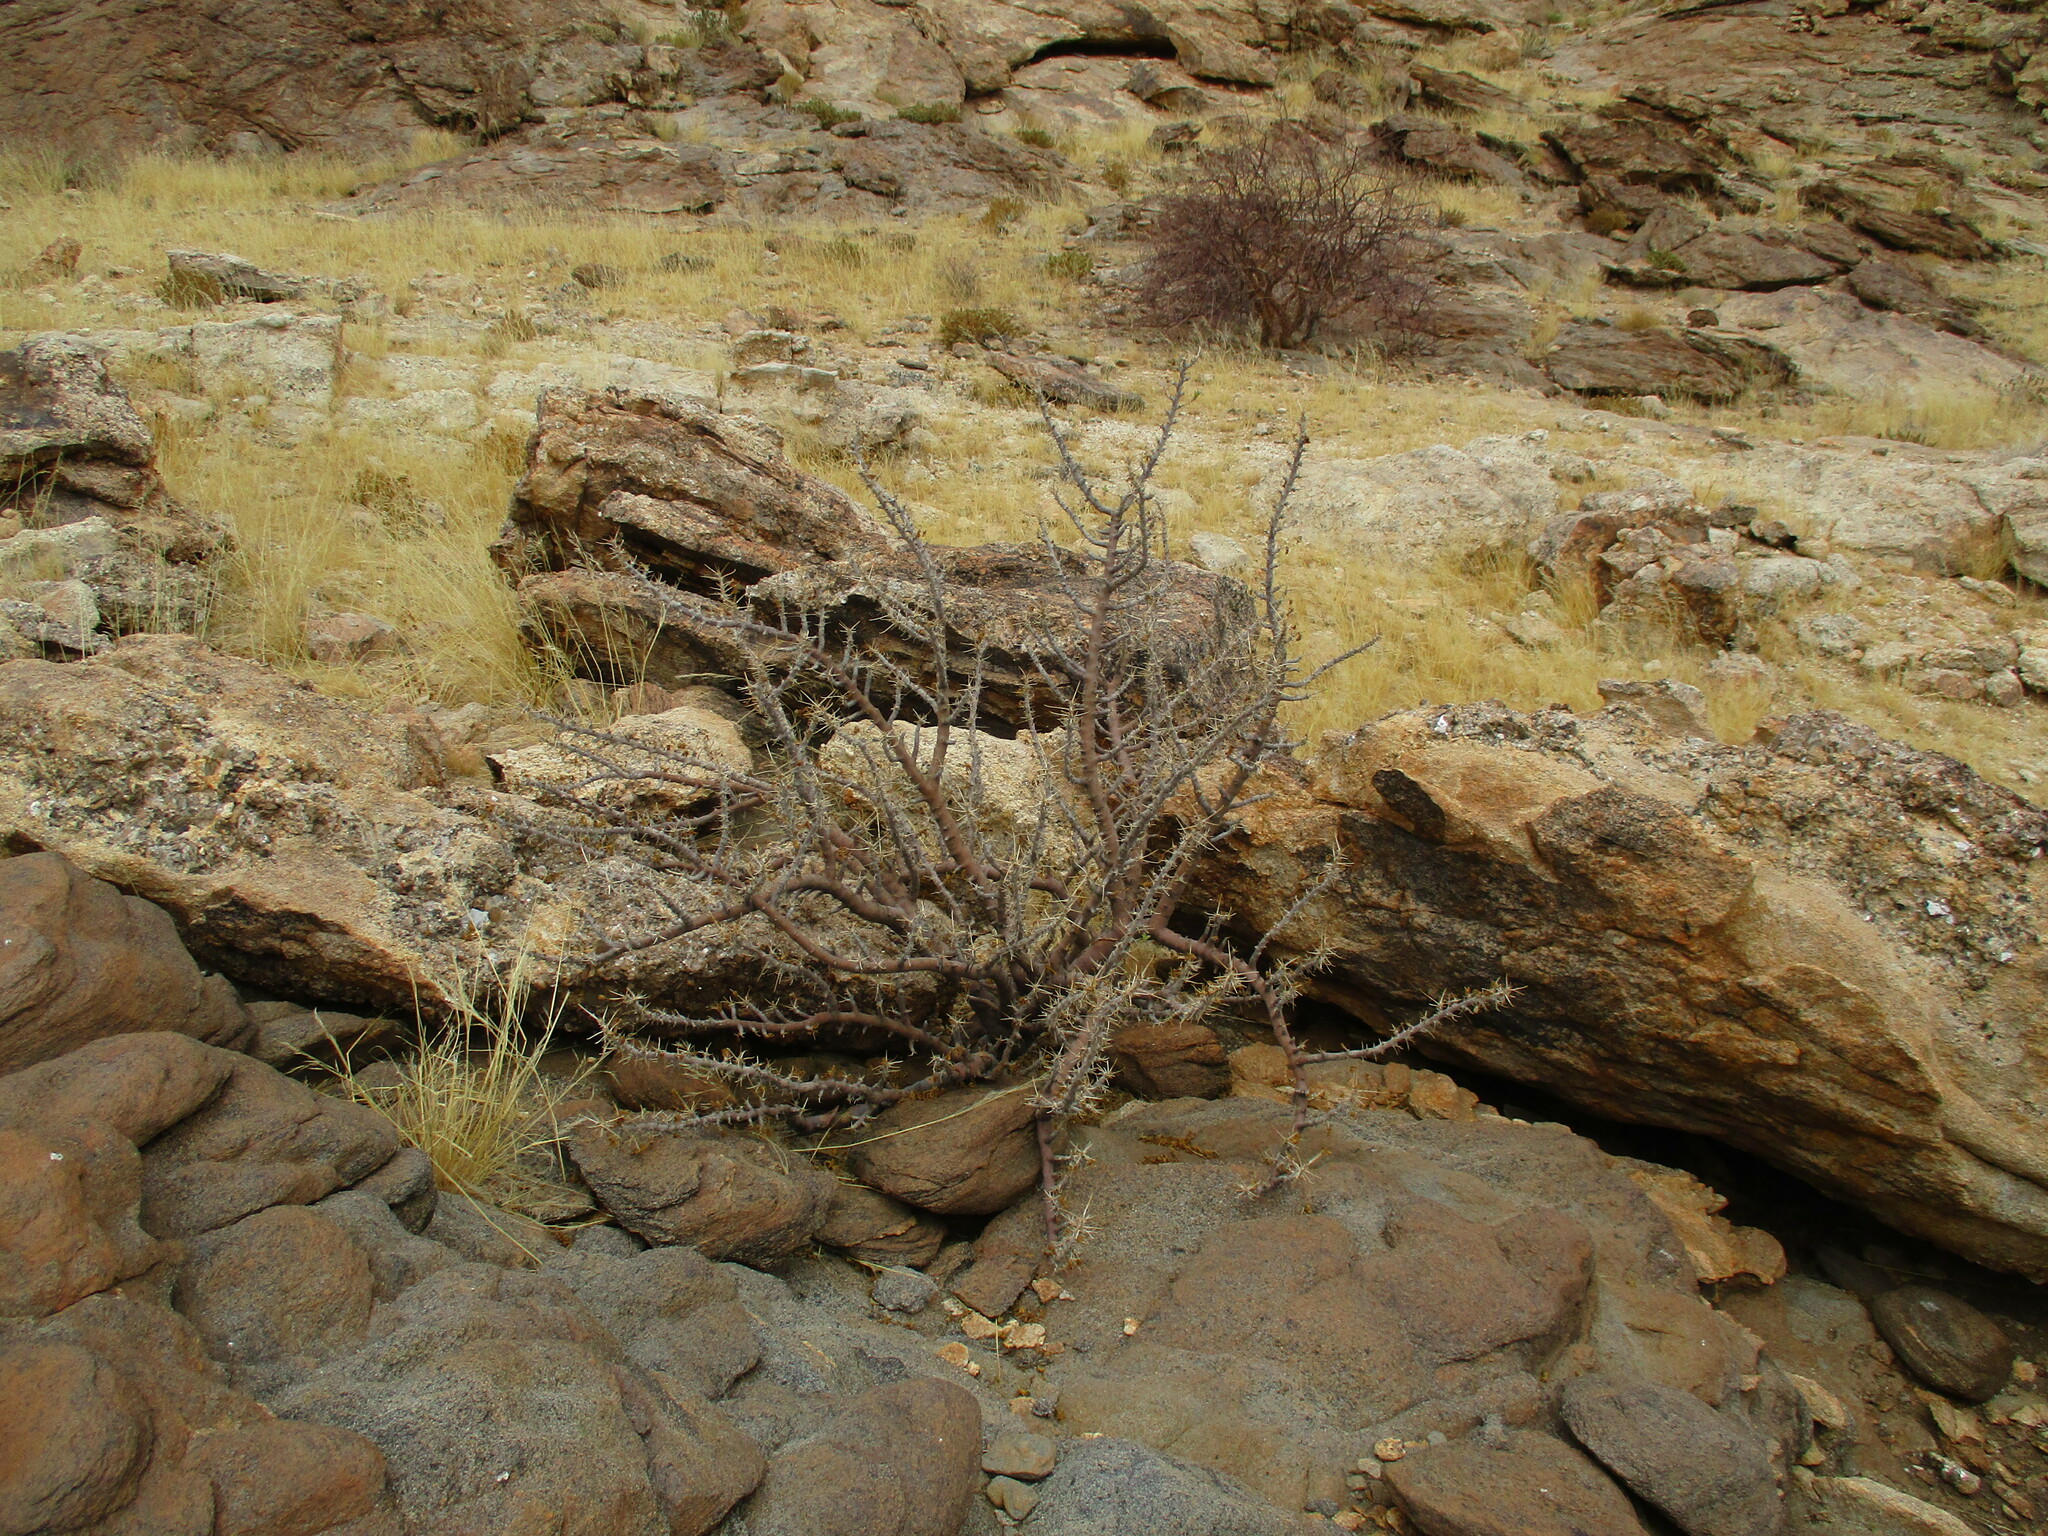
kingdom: Plantae
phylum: Tracheophyta
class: Magnoliopsida
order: Geraniales
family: Geraniaceae
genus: Monsonia
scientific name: Monsonia marlothii
